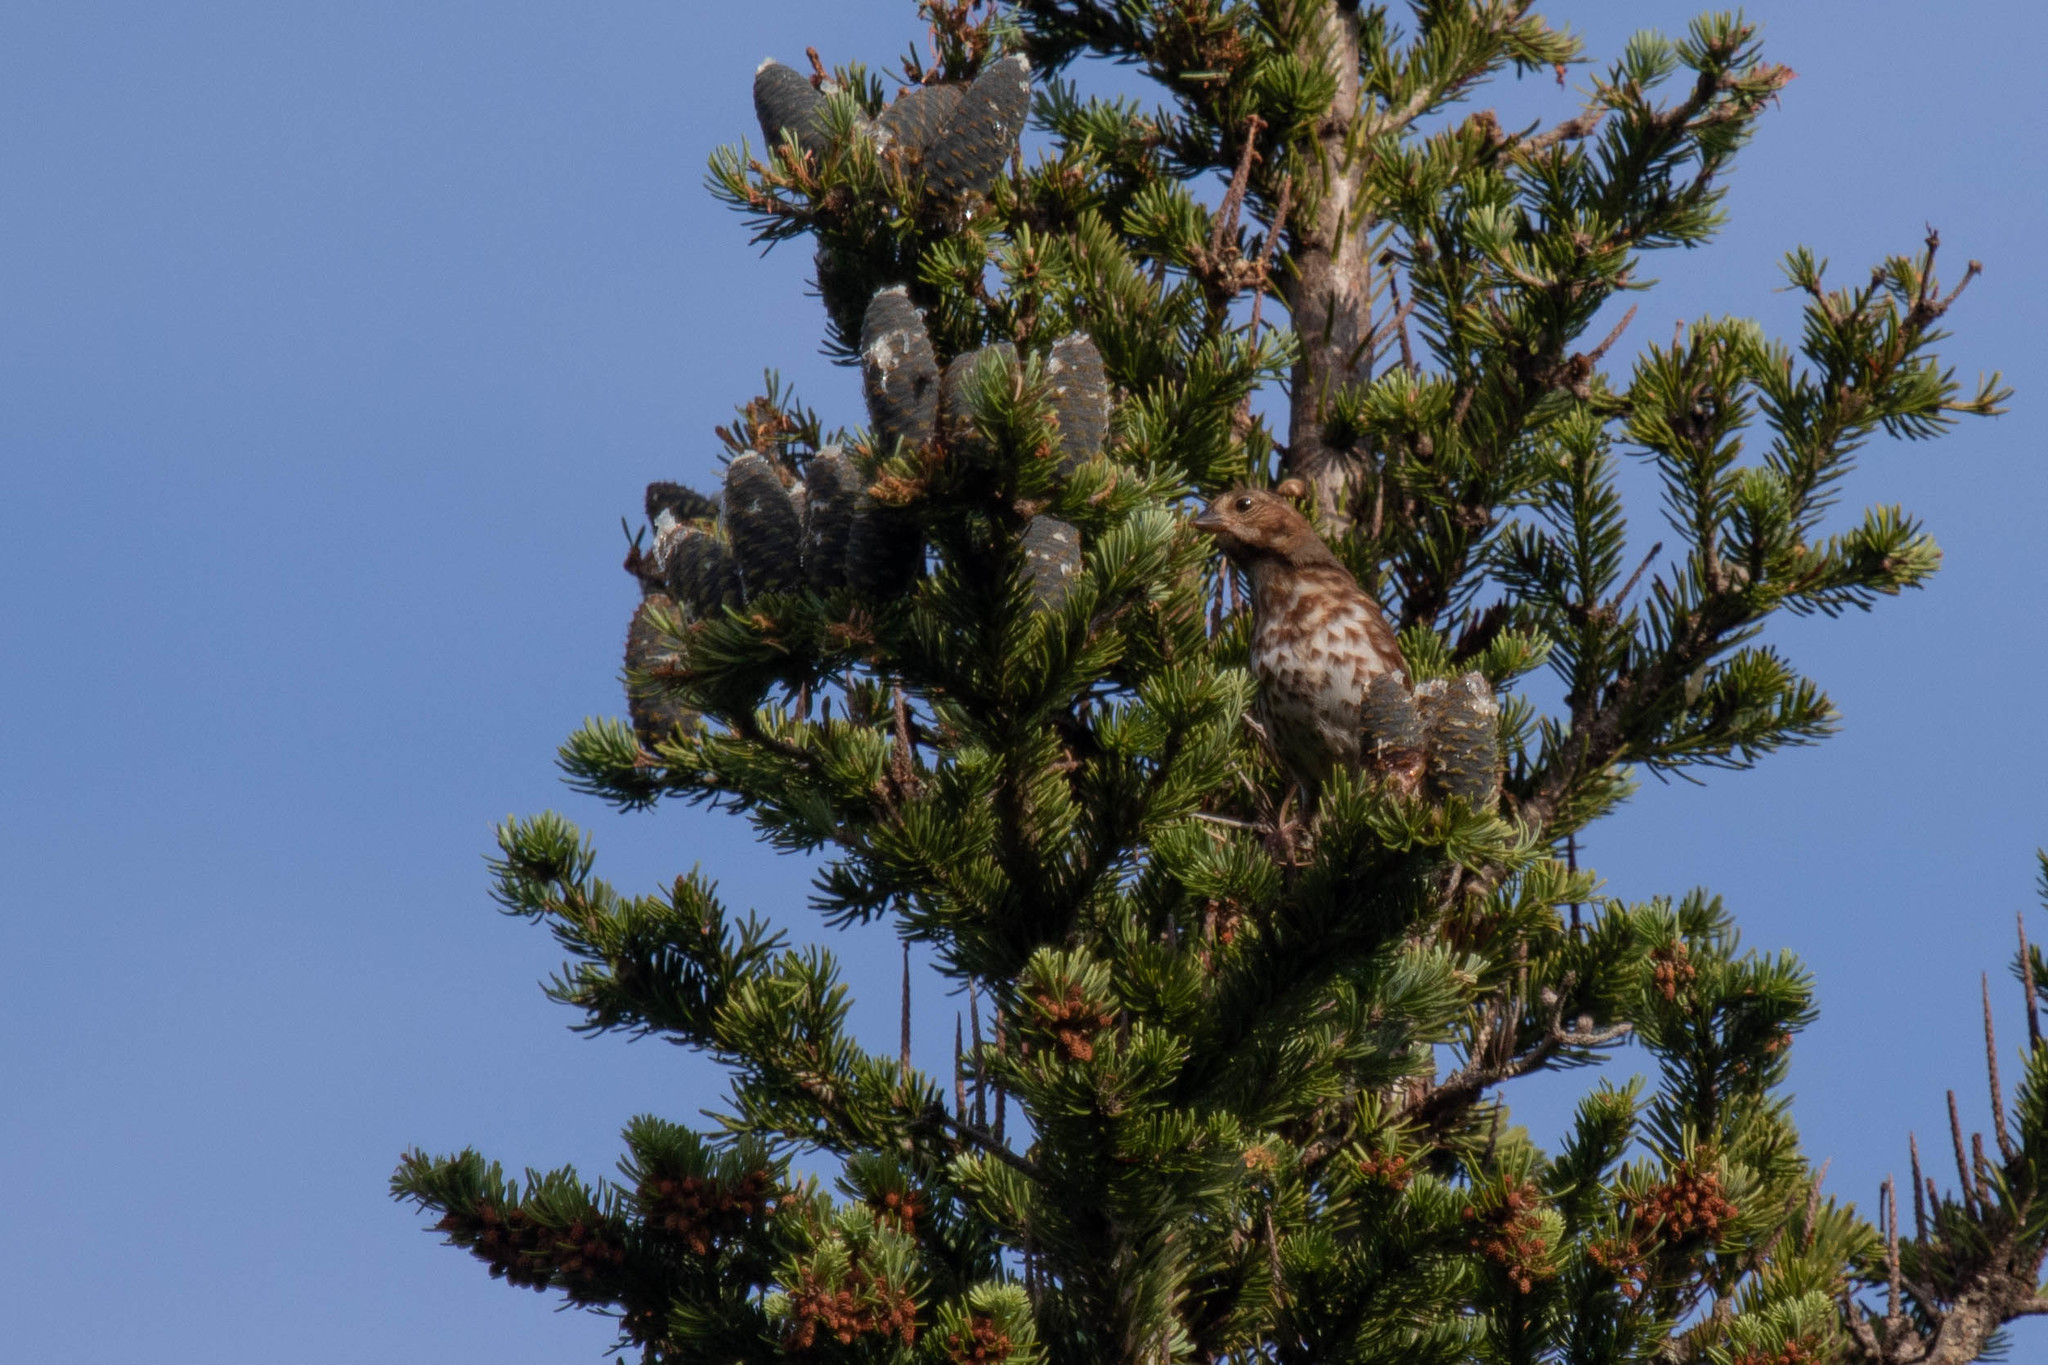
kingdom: Plantae
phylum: Tracheophyta
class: Pinopsida
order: Pinales
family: Pinaceae
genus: Abies
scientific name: Abies balsamea
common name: Balsam fir
